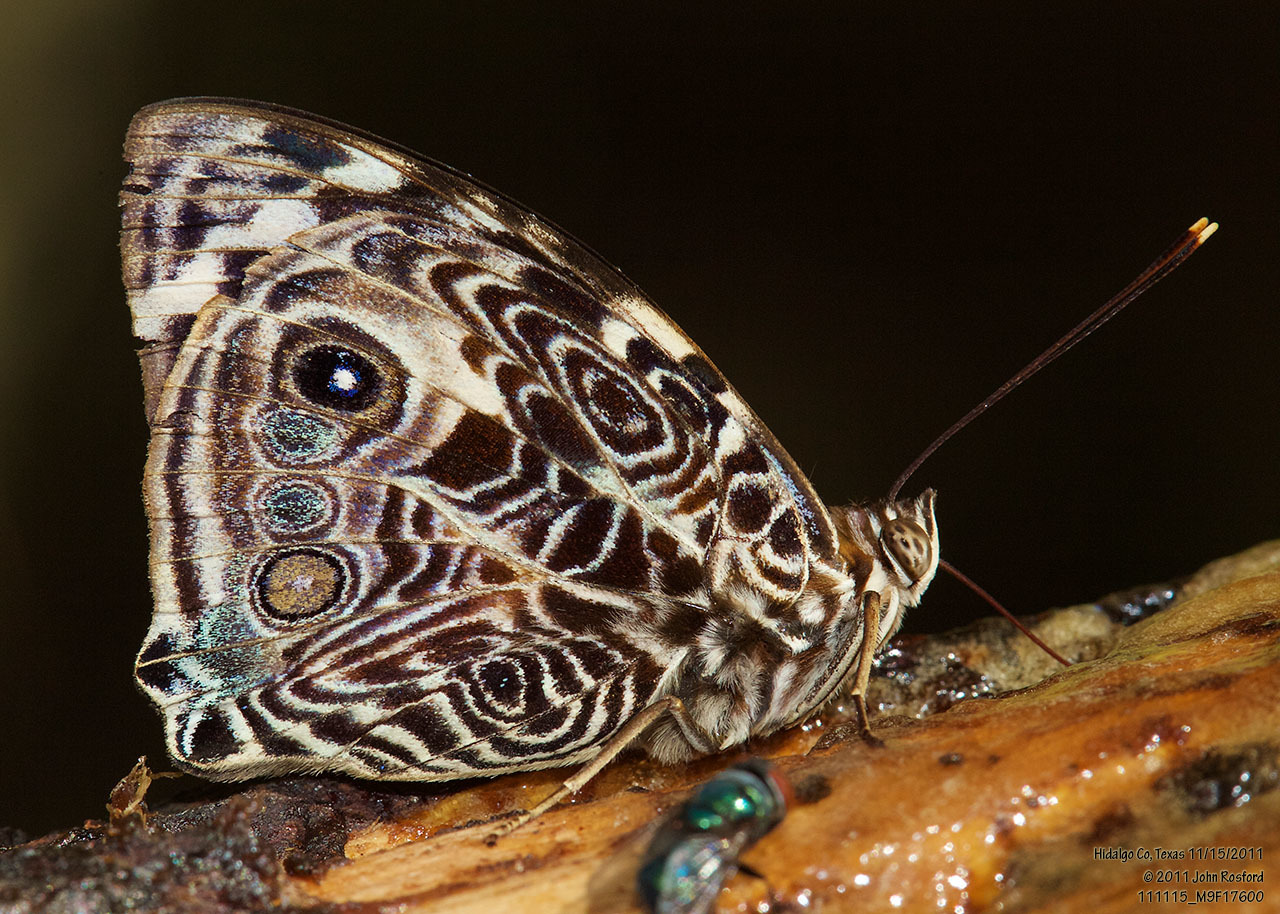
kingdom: Animalia
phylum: Arthropoda
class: Insecta
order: Lepidoptera
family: Nymphalidae
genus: Smyrna
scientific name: Smyrna blomfildia
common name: Blomfild's beauty
